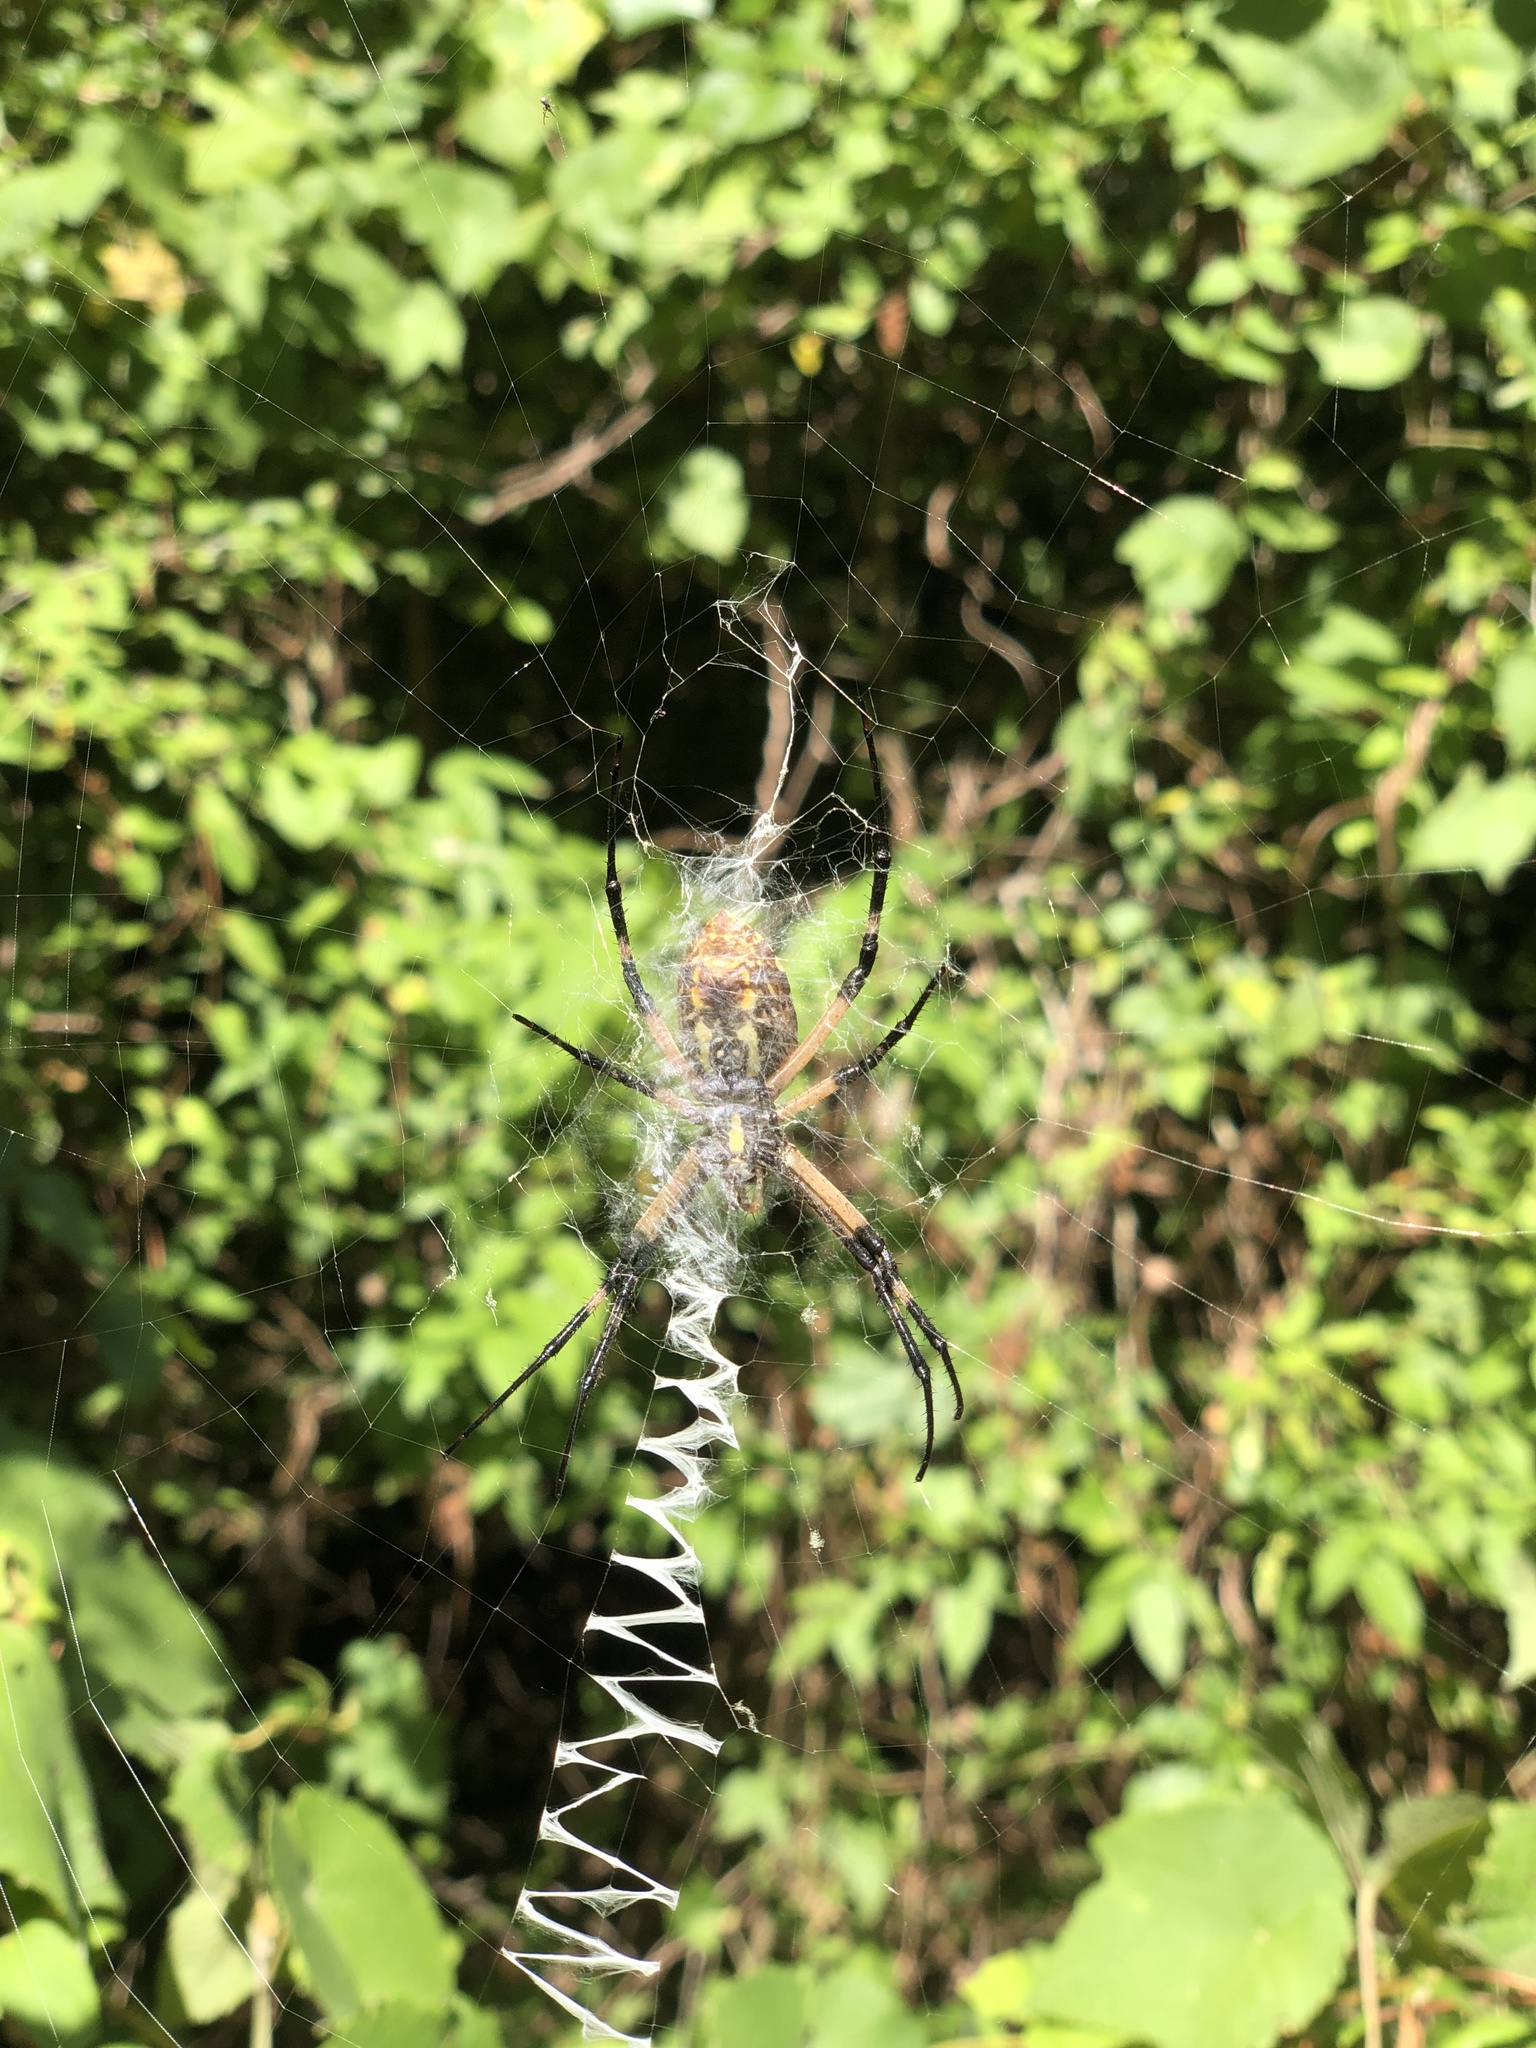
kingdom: Animalia
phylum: Arthropoda
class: Arachnida
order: Araneae
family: Araneidae
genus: Argiope
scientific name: Argiope aurantia
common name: Orb weavers
